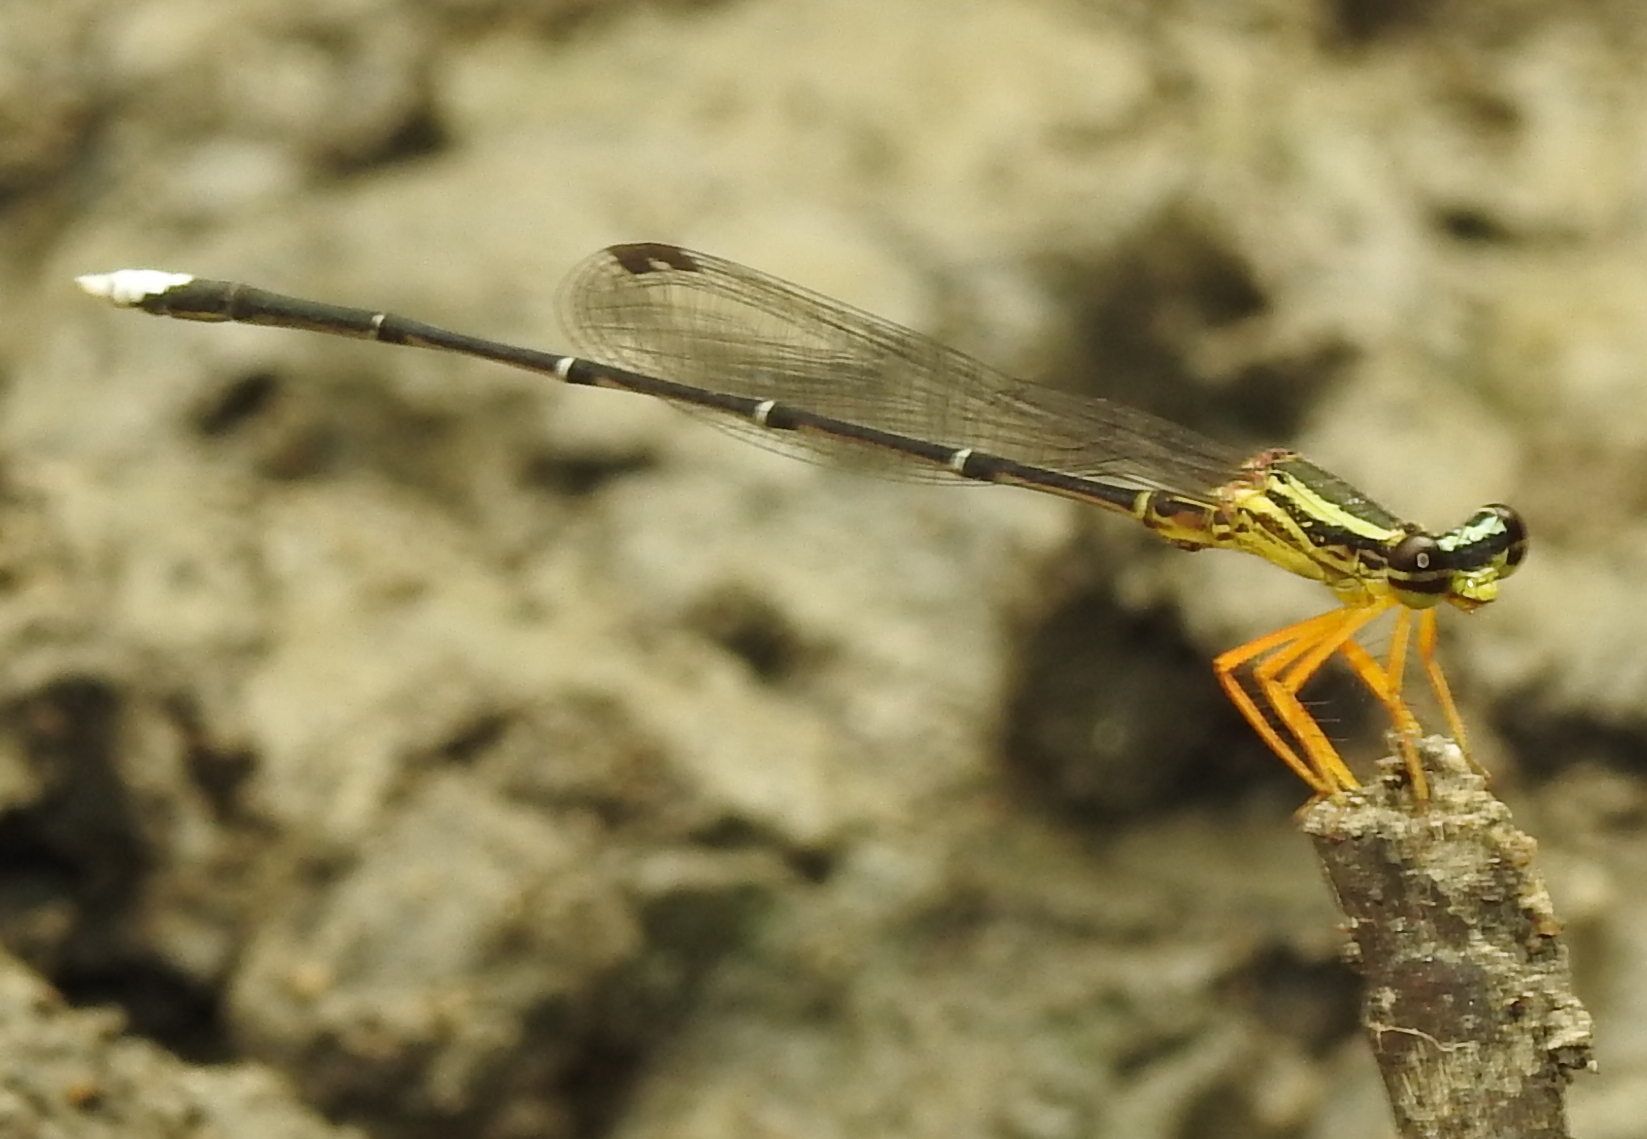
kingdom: Animalia
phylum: Arthropoda
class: Insecta
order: Odonata
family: Platycnemididae
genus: Copera
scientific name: Copera marginipes
